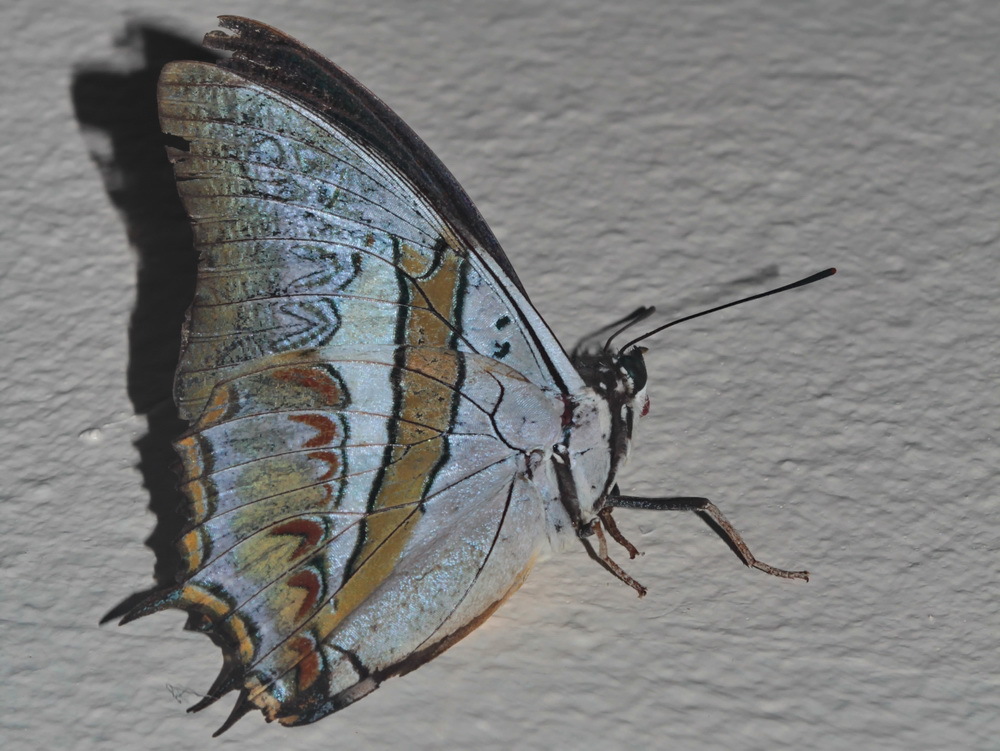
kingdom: Animalia
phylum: Arthropoda
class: Insecta
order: Lepidoptera
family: Nymphalidae
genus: Polyura
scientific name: Polyura schreiber
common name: Blue nawab
